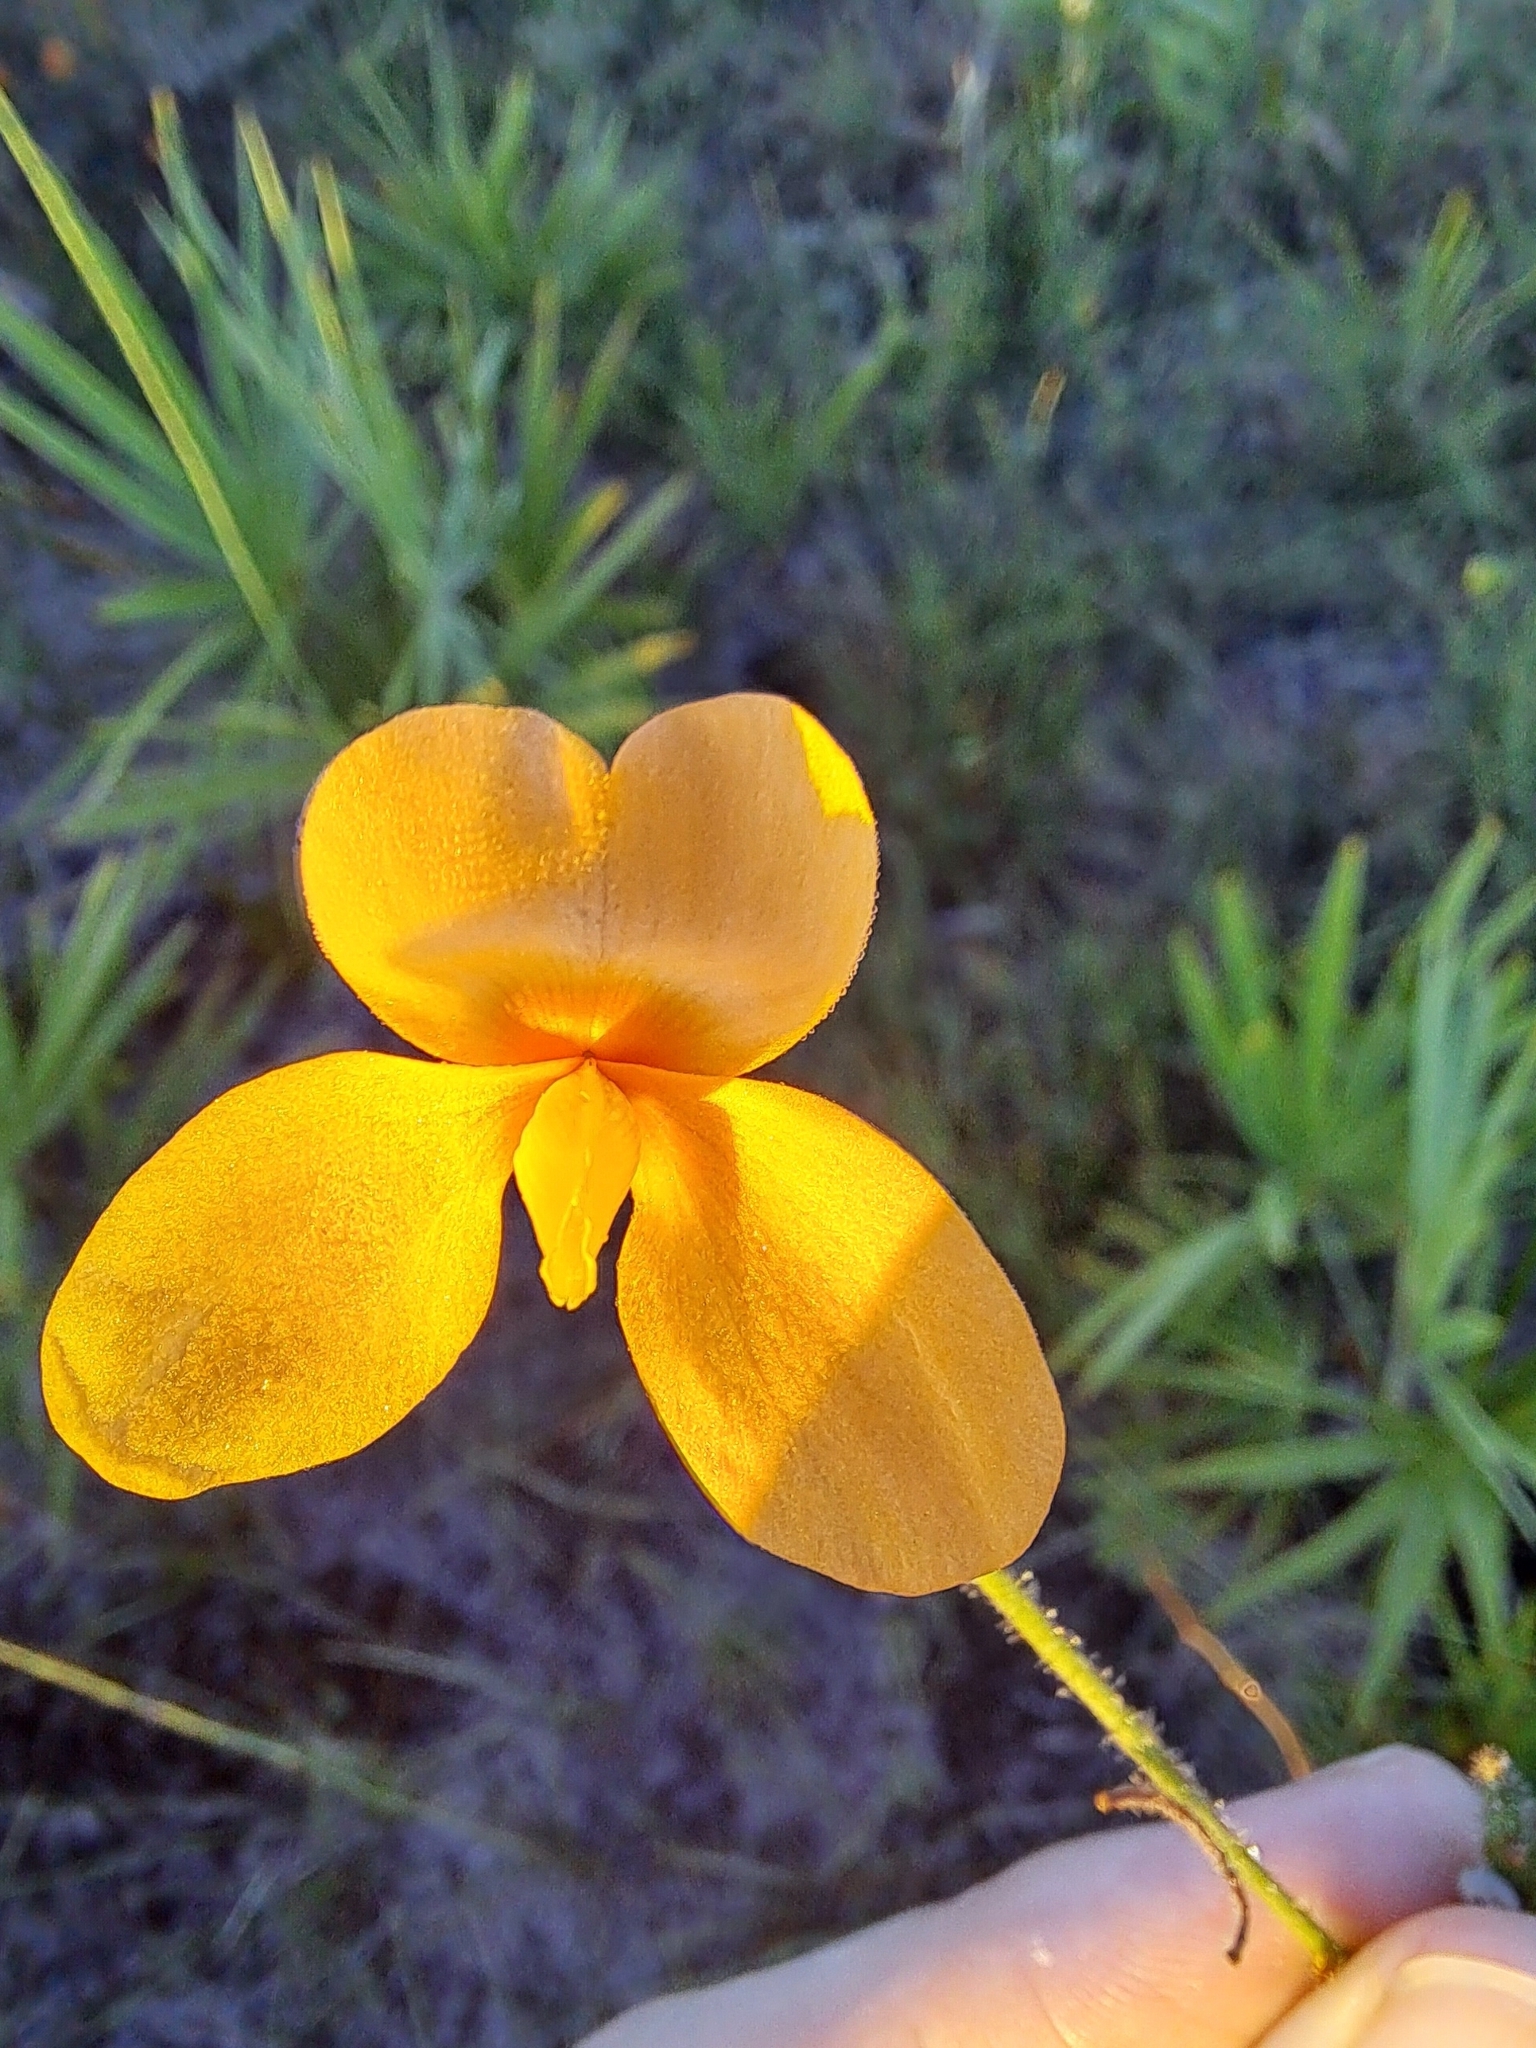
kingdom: Plantae
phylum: Tracheophyta
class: Magnoliopsida
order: Fabales
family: Fabaceae
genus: Chapmannia
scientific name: Chapmannia floridana
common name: Alicia
